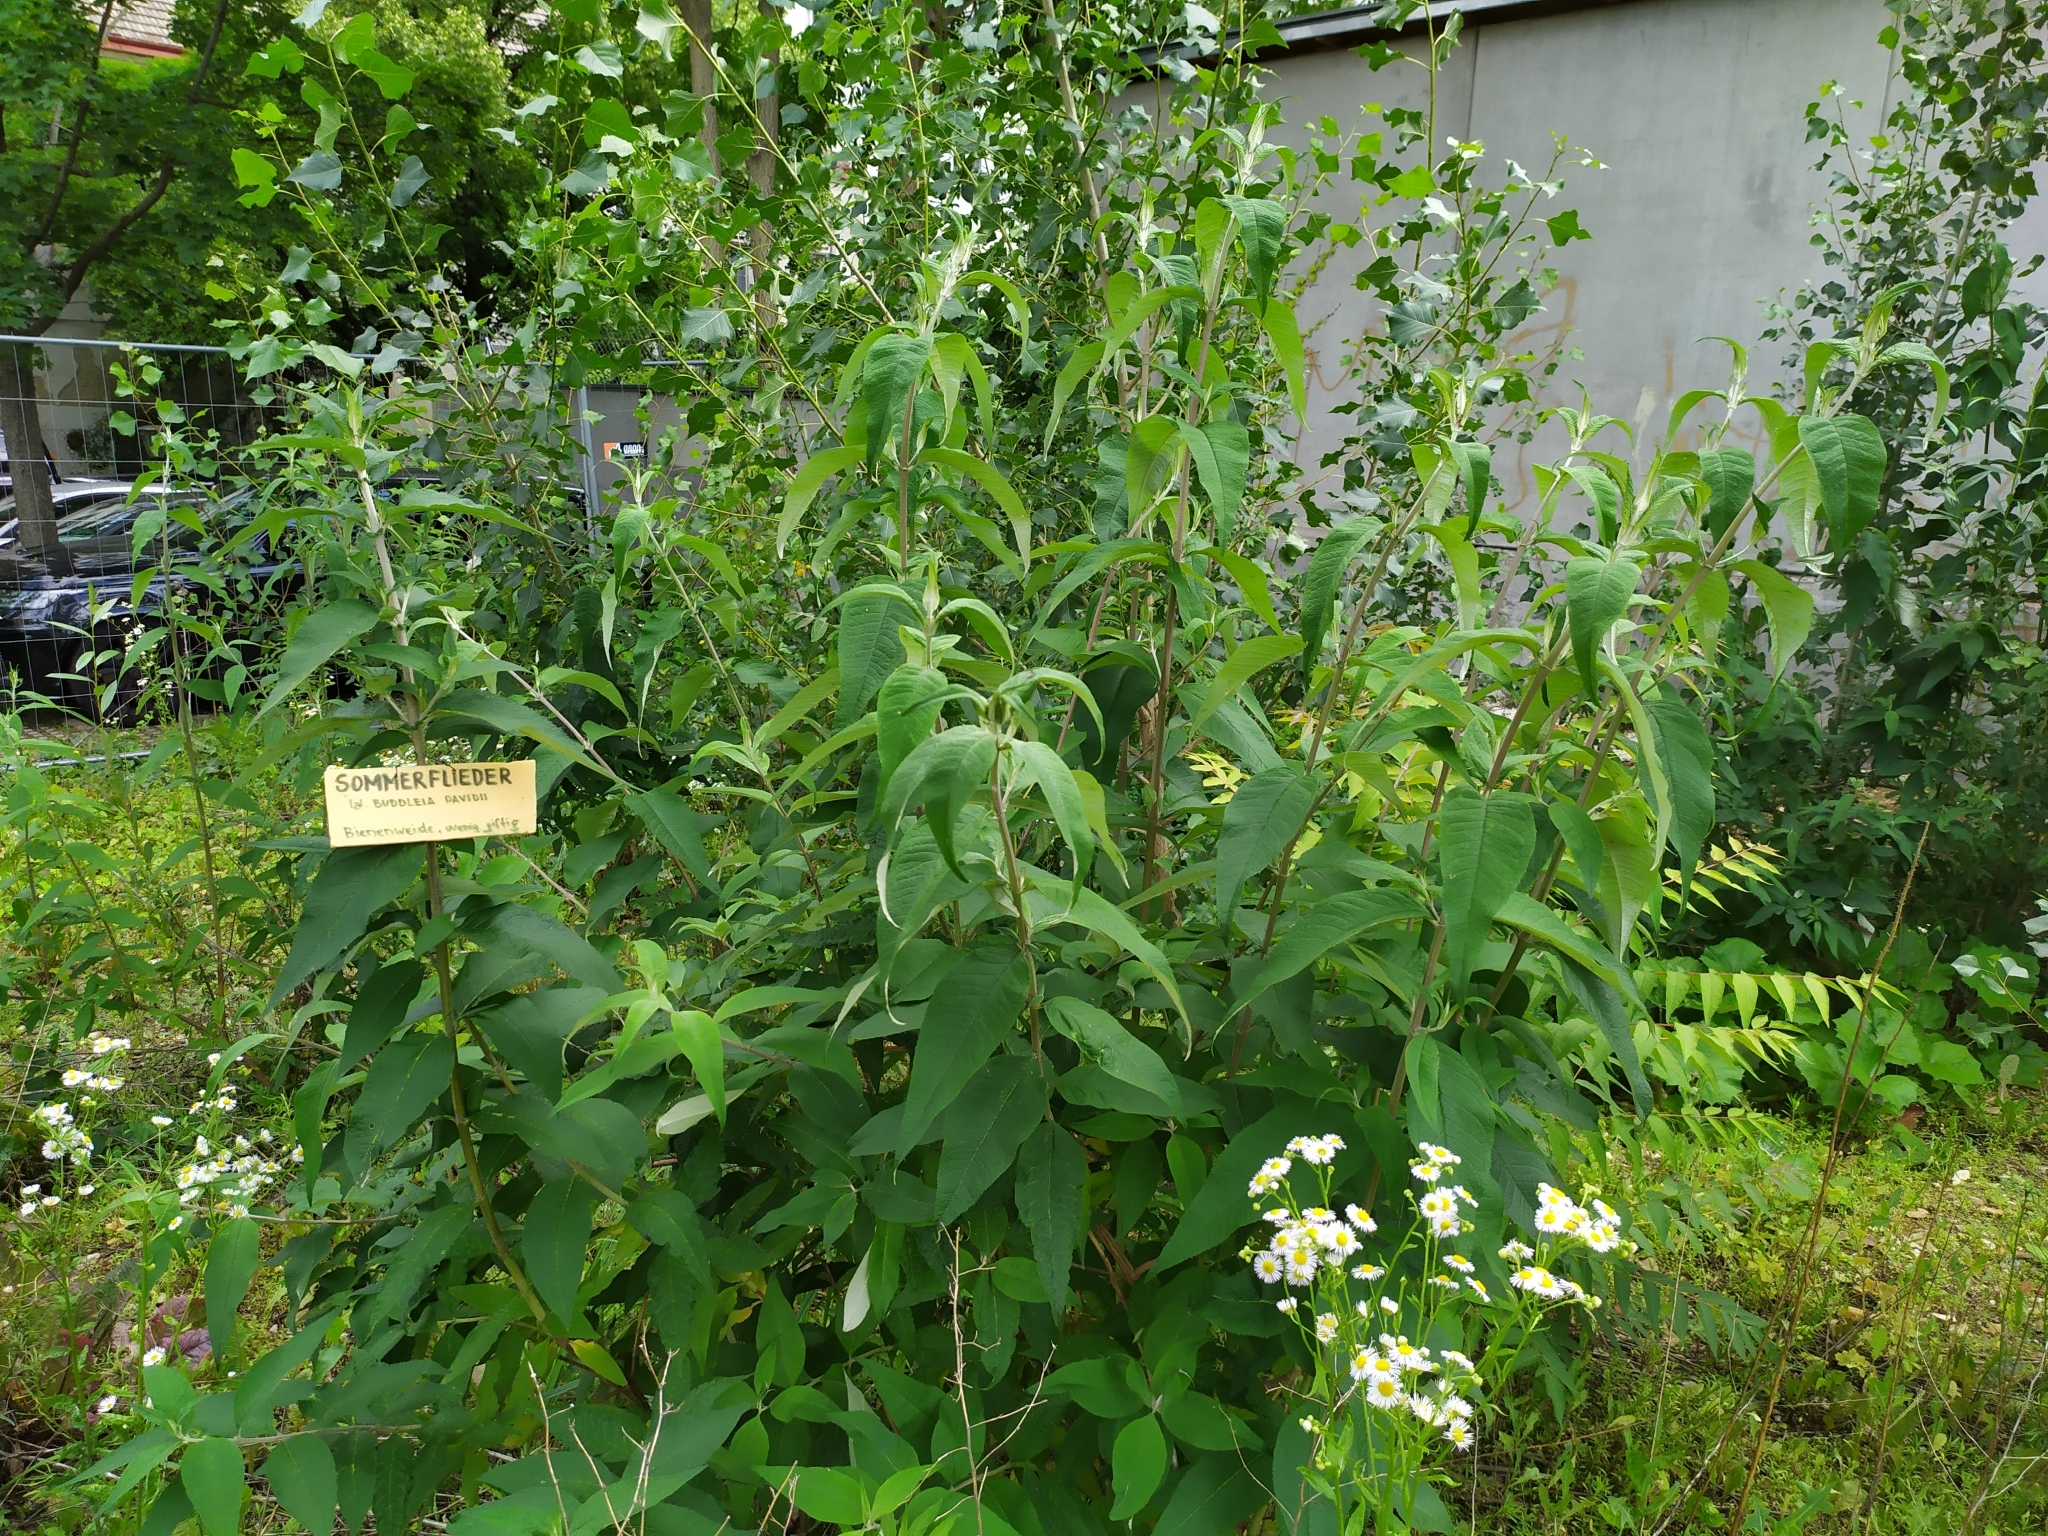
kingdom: Plantae
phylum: Tracheophyta
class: Magnoliopsida
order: Lamiales
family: Scrophulariaceae
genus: Buddleja
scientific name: Buddleja davidii
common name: Butterfly-bush
